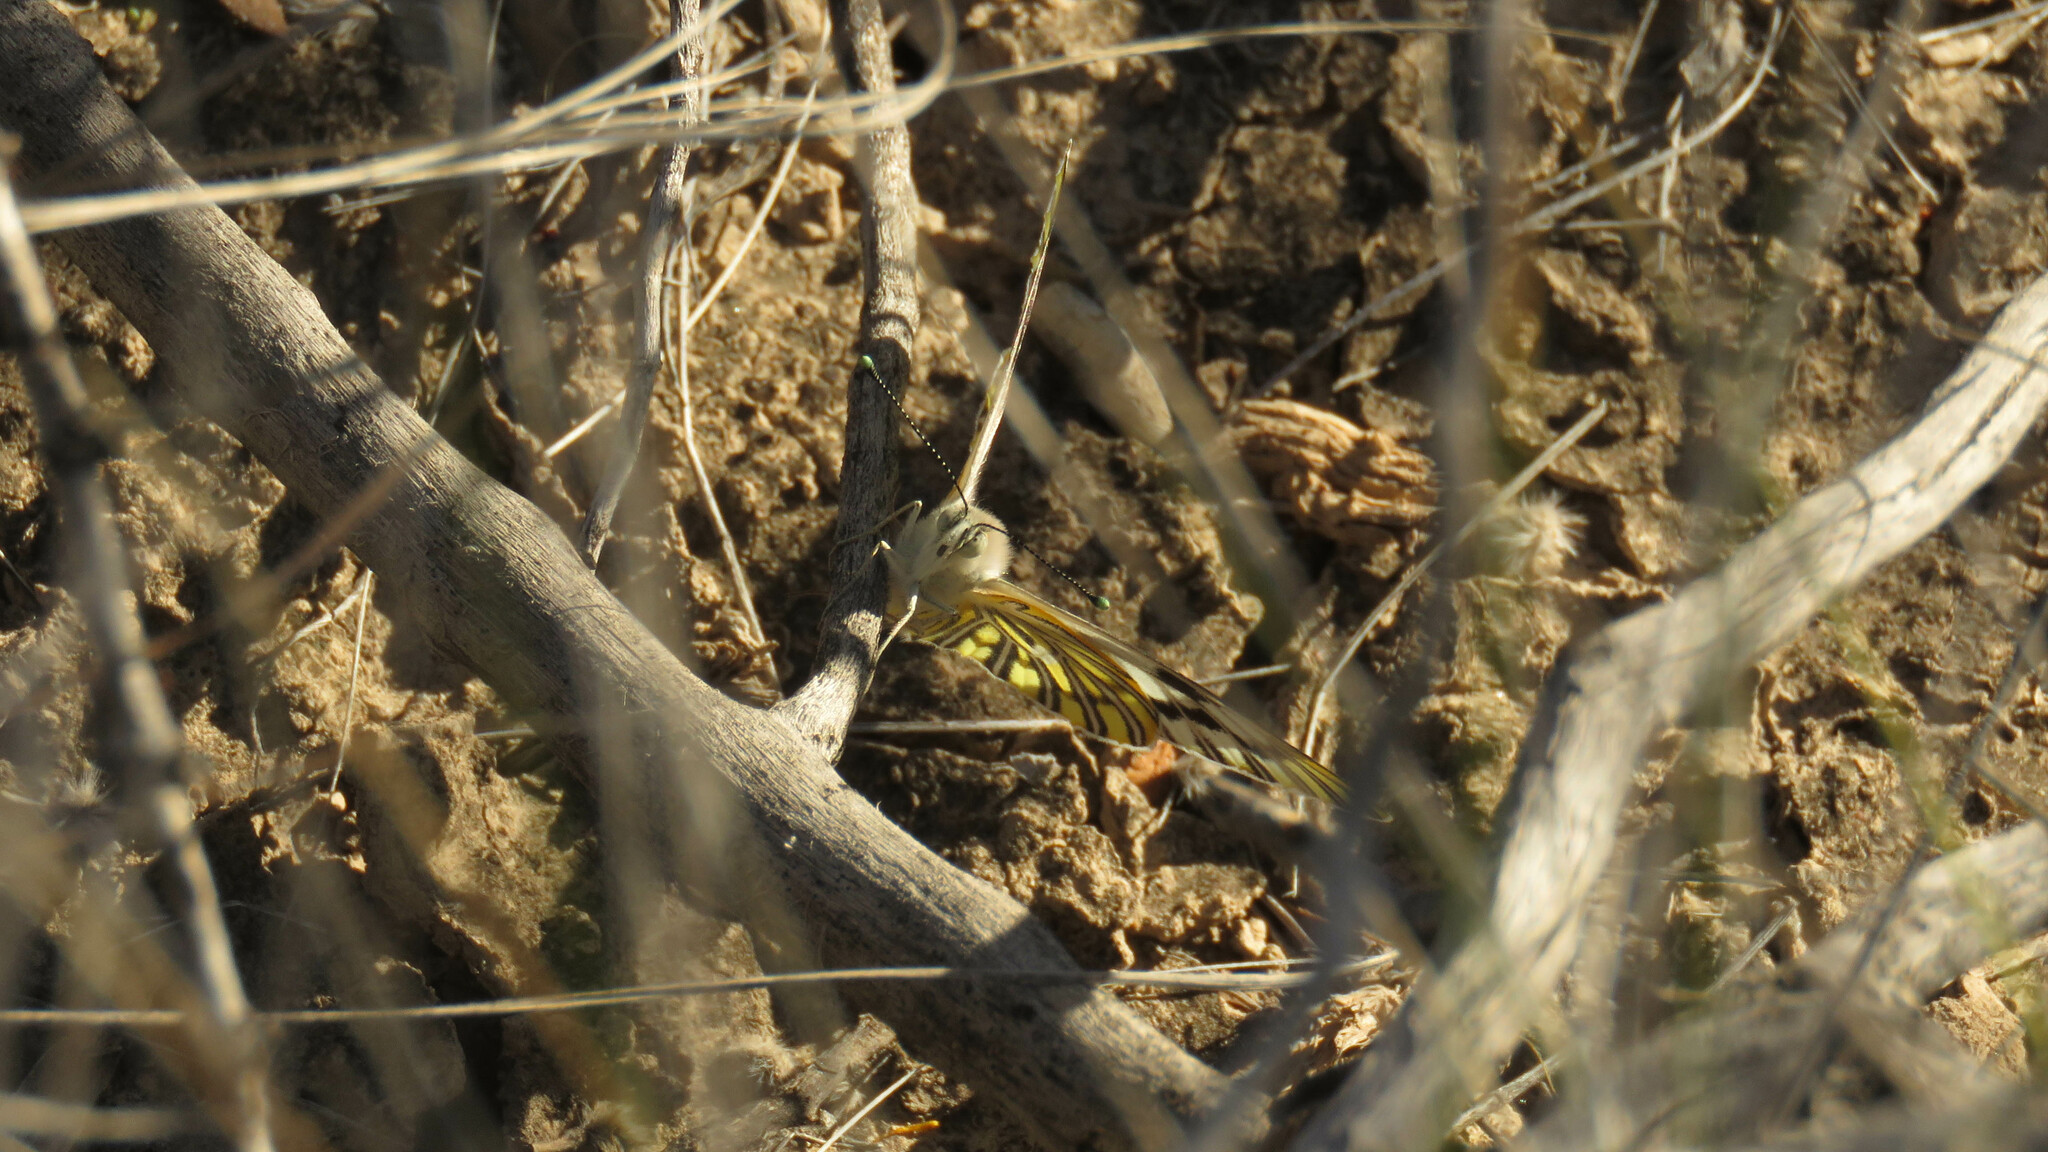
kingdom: Animalia
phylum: Arthropoda
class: Insecta
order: Lepidoptera
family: Pieridae
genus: Tatochila
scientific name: Tatochila mercedis
